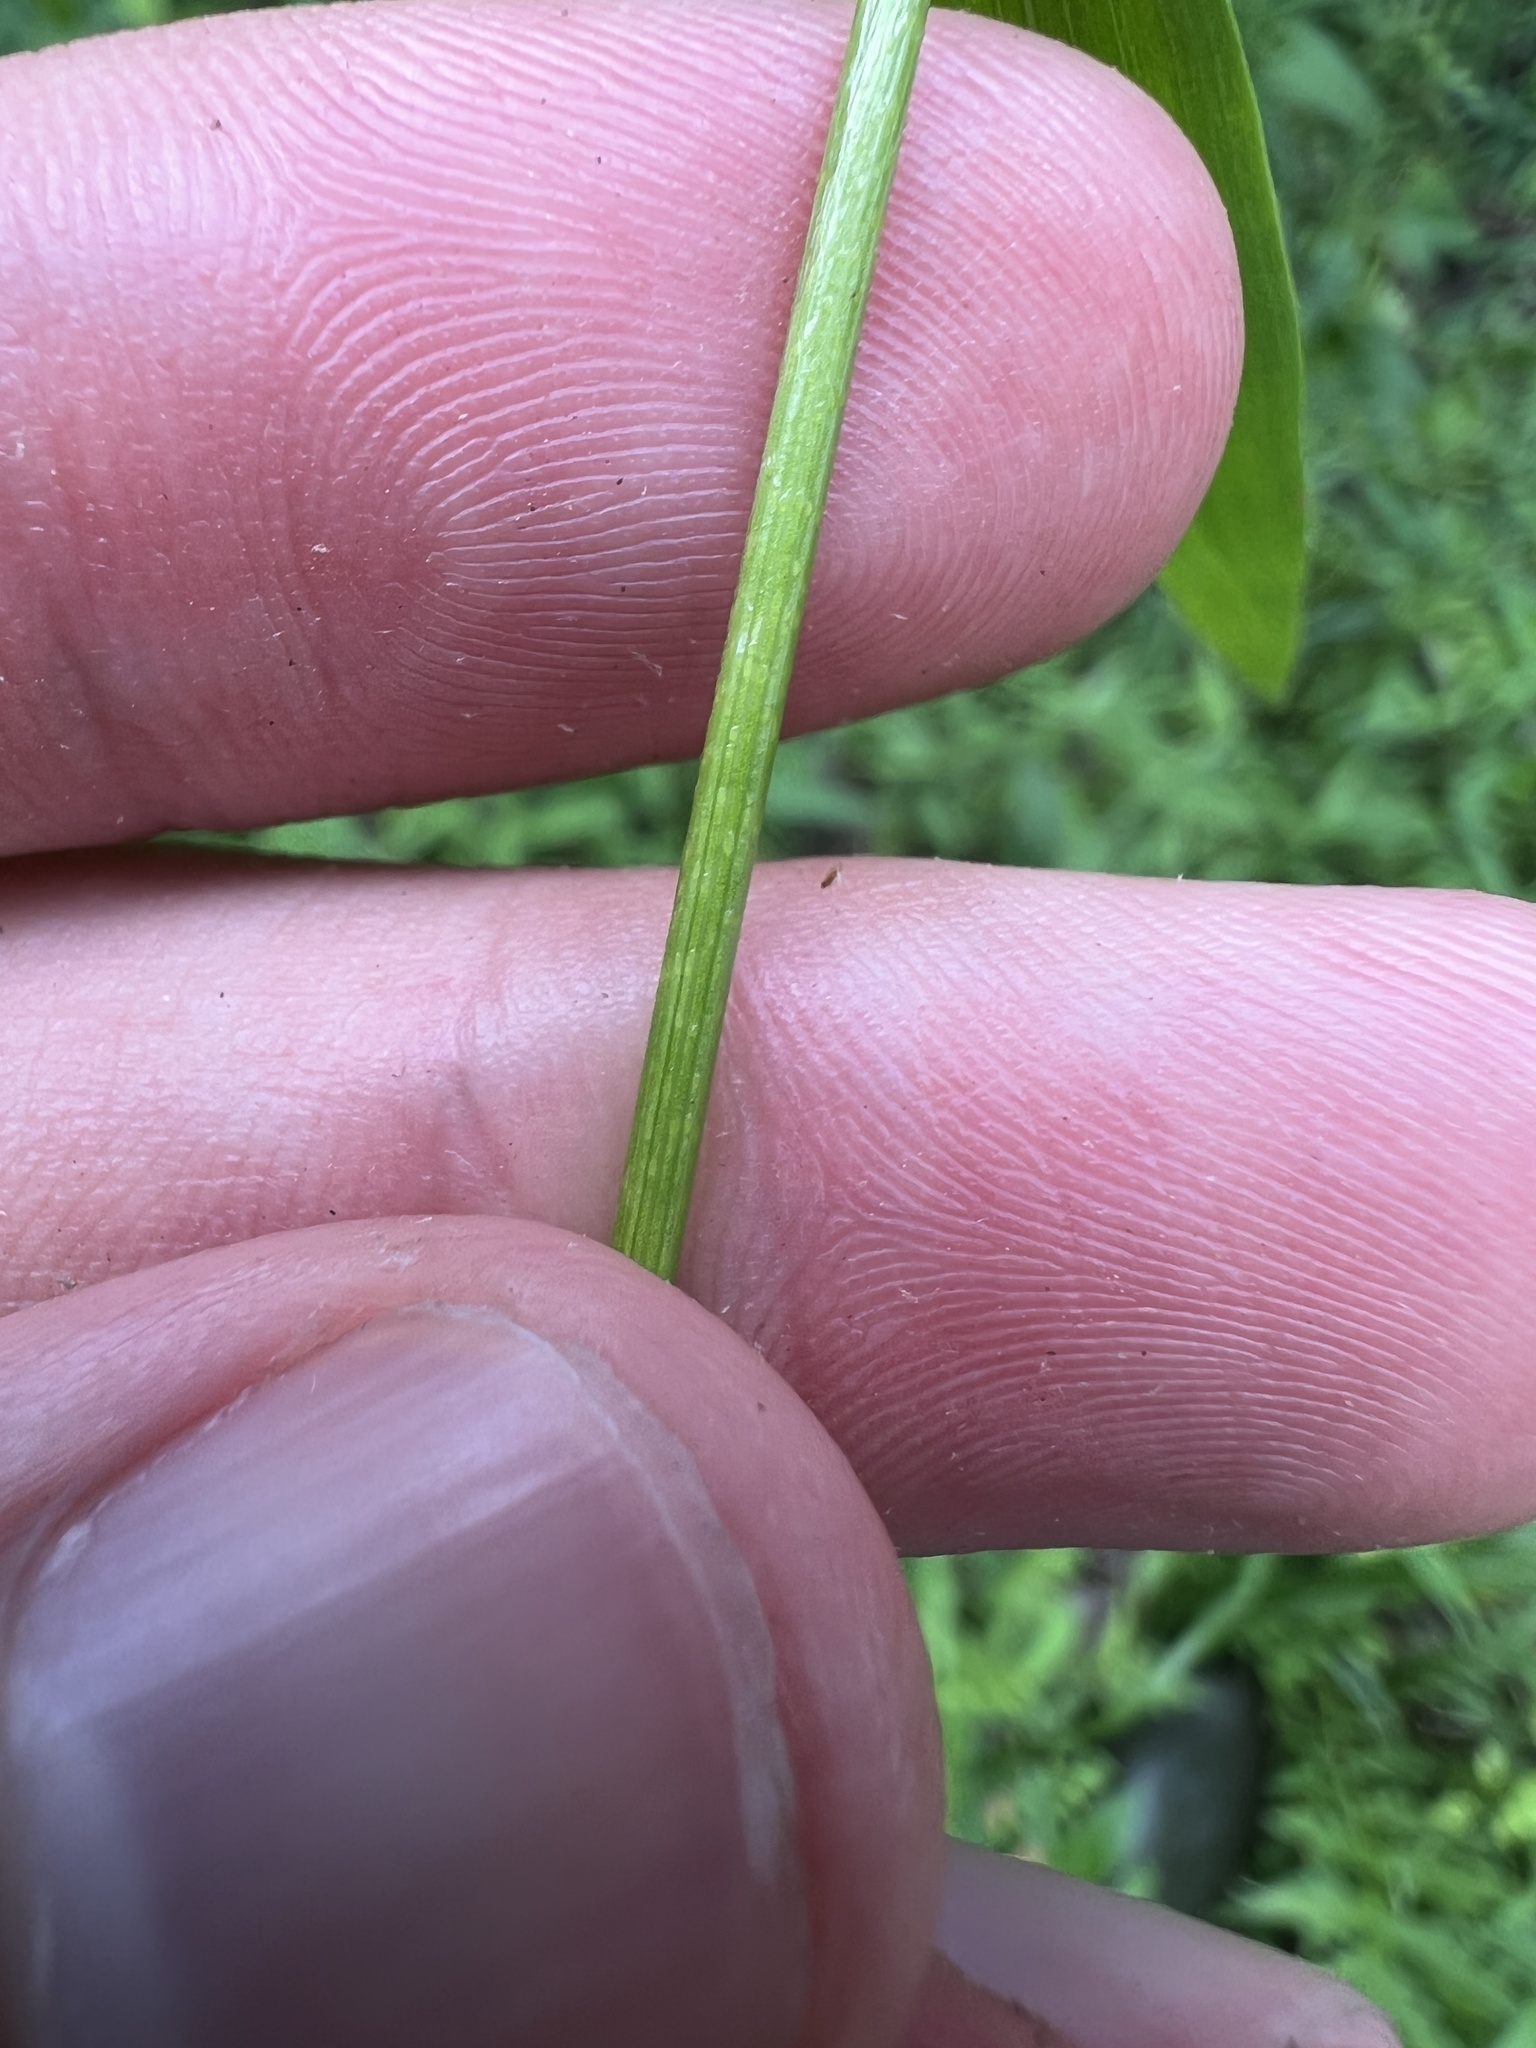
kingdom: Plantae
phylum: Tracheophyta
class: Liliopsida
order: Poales
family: Poaceae
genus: Dichanthelium
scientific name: Dichanthelium yadkinense
